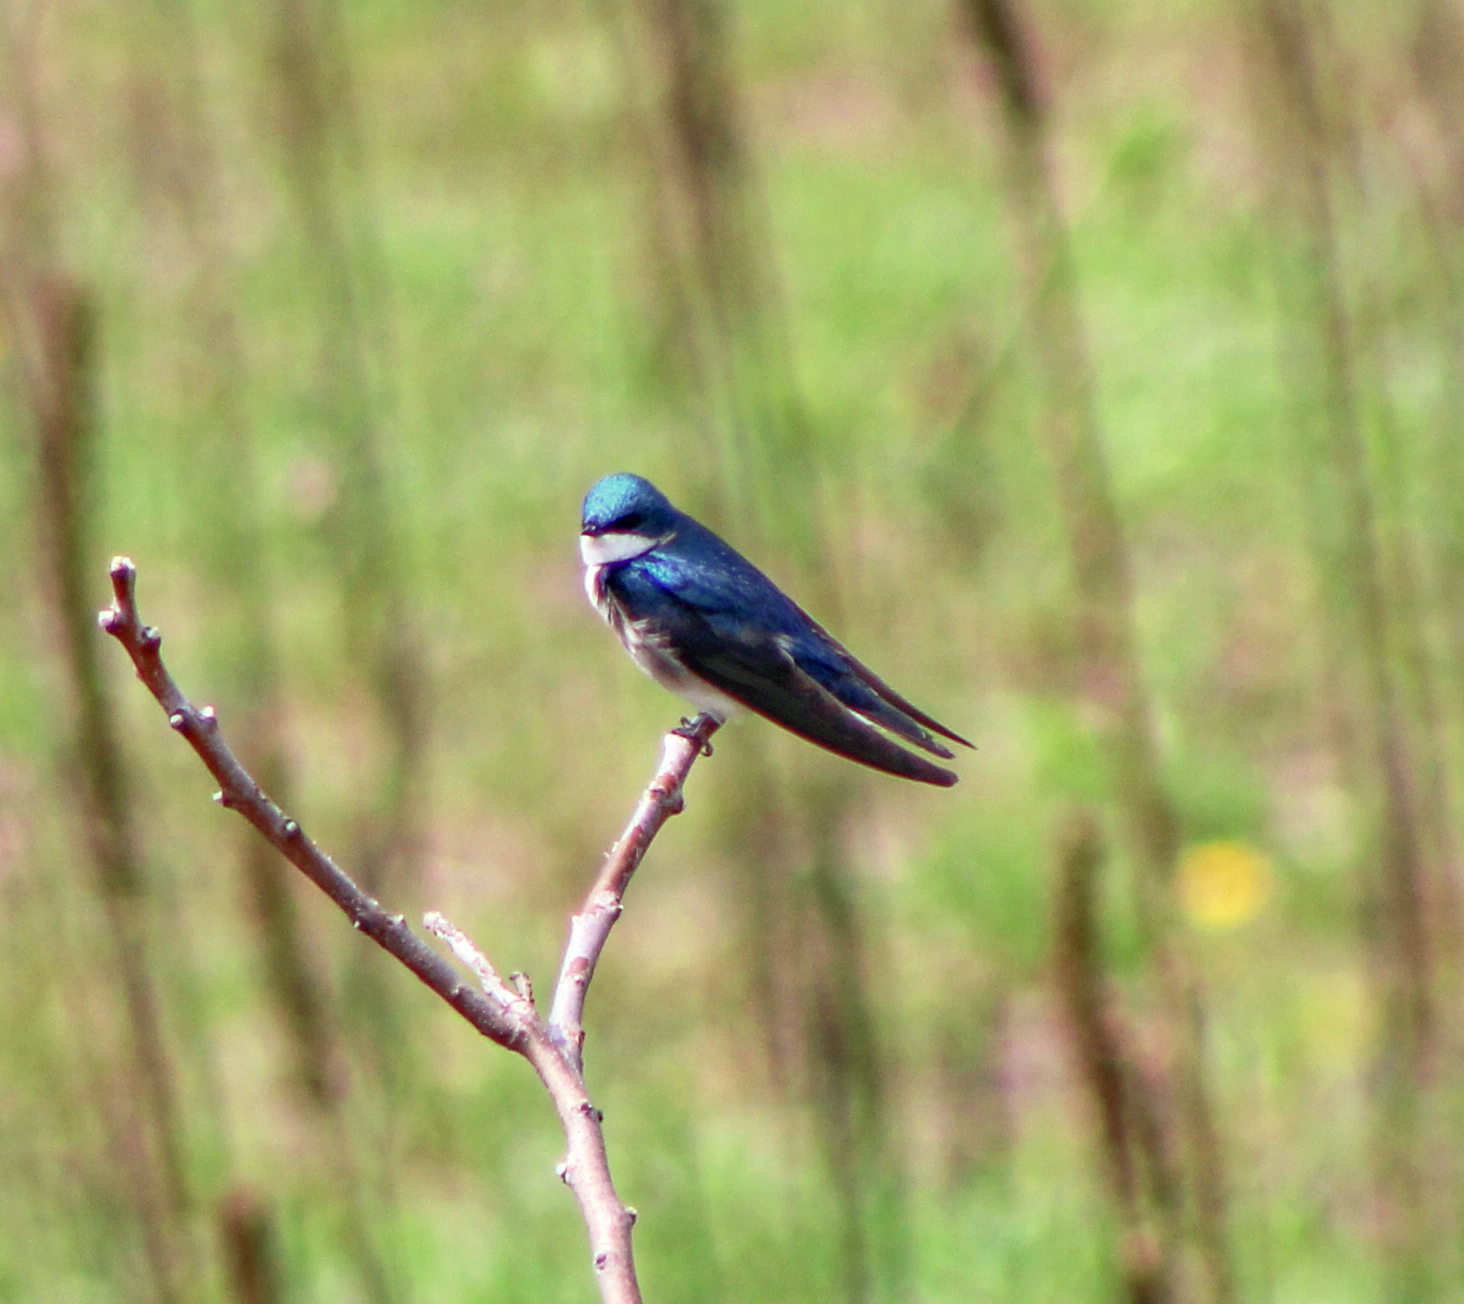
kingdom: Animalia
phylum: Chordata
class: Aves
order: Passeriformes
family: Hirundinidae
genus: Tachycineta
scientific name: Tachycineta bicolor
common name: Tree swallow
